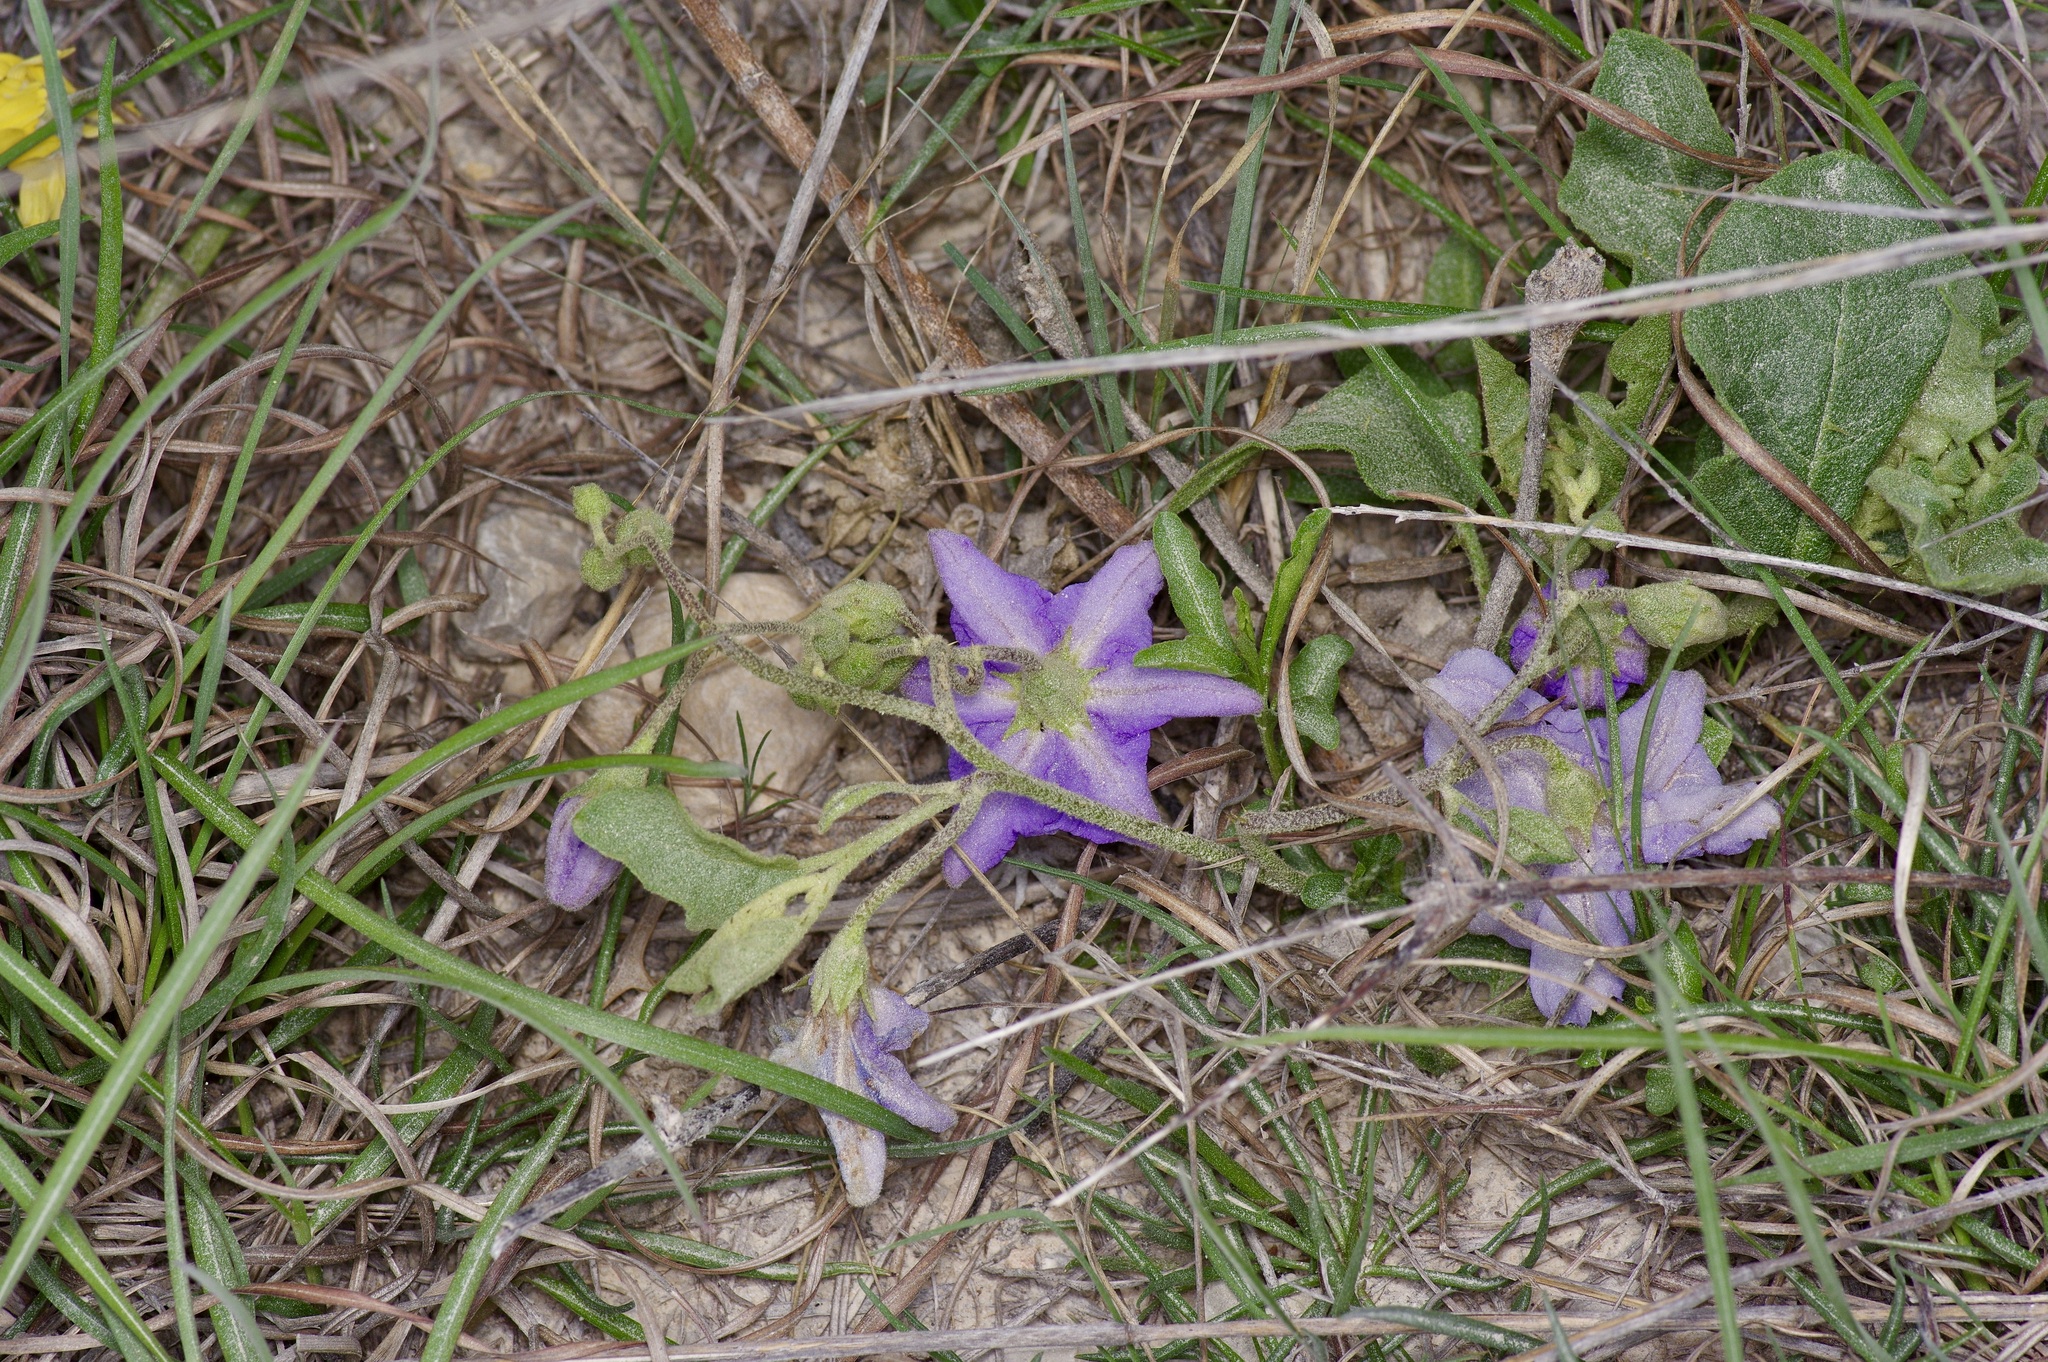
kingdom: Plantae
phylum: Tracheophyta
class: Magnoliopsida
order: Solanales
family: Solanaceae
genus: Solanum
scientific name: Solanum dimidiatum
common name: Carolina horse-nettle
